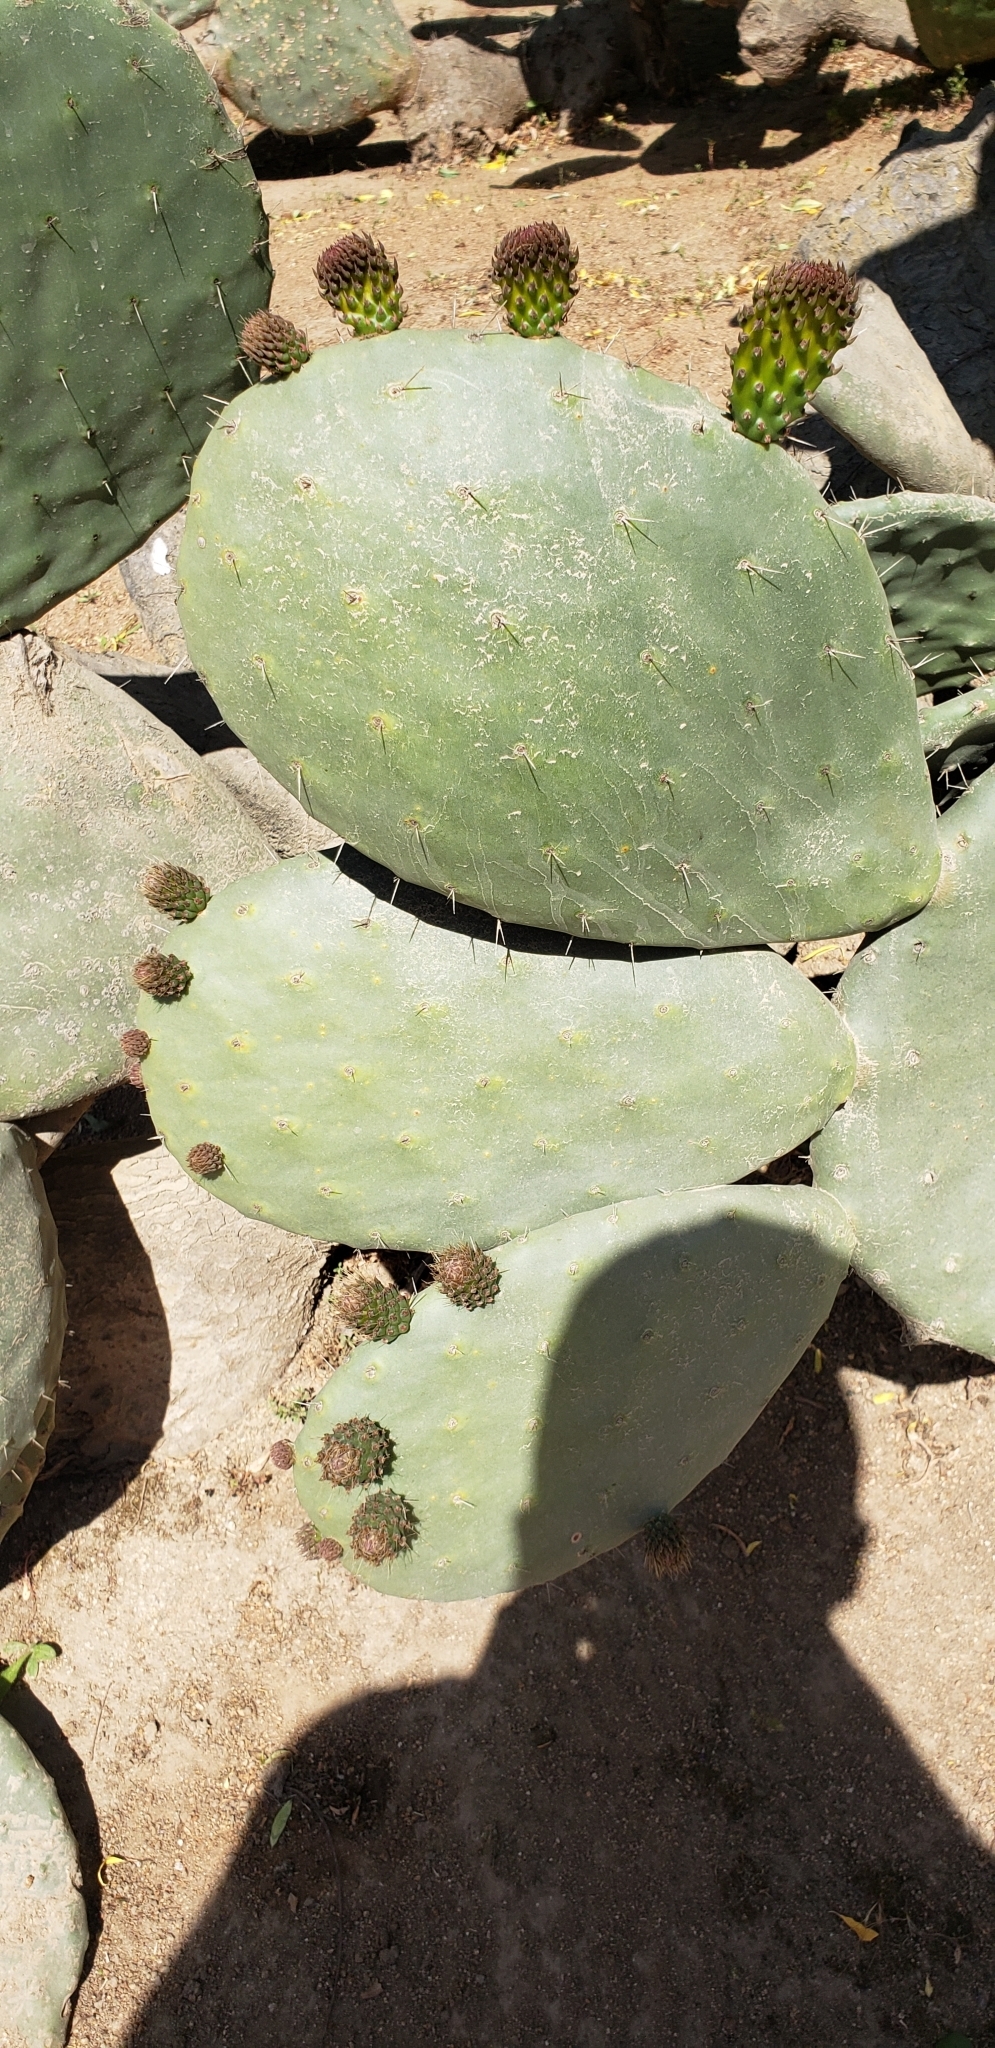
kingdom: Plantae
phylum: Tracheophyta
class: Magnoliopsida
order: Caryophyllales
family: Cactaceae
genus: Opuntia
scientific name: Opuntia ficus-indica
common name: Barbary fig
